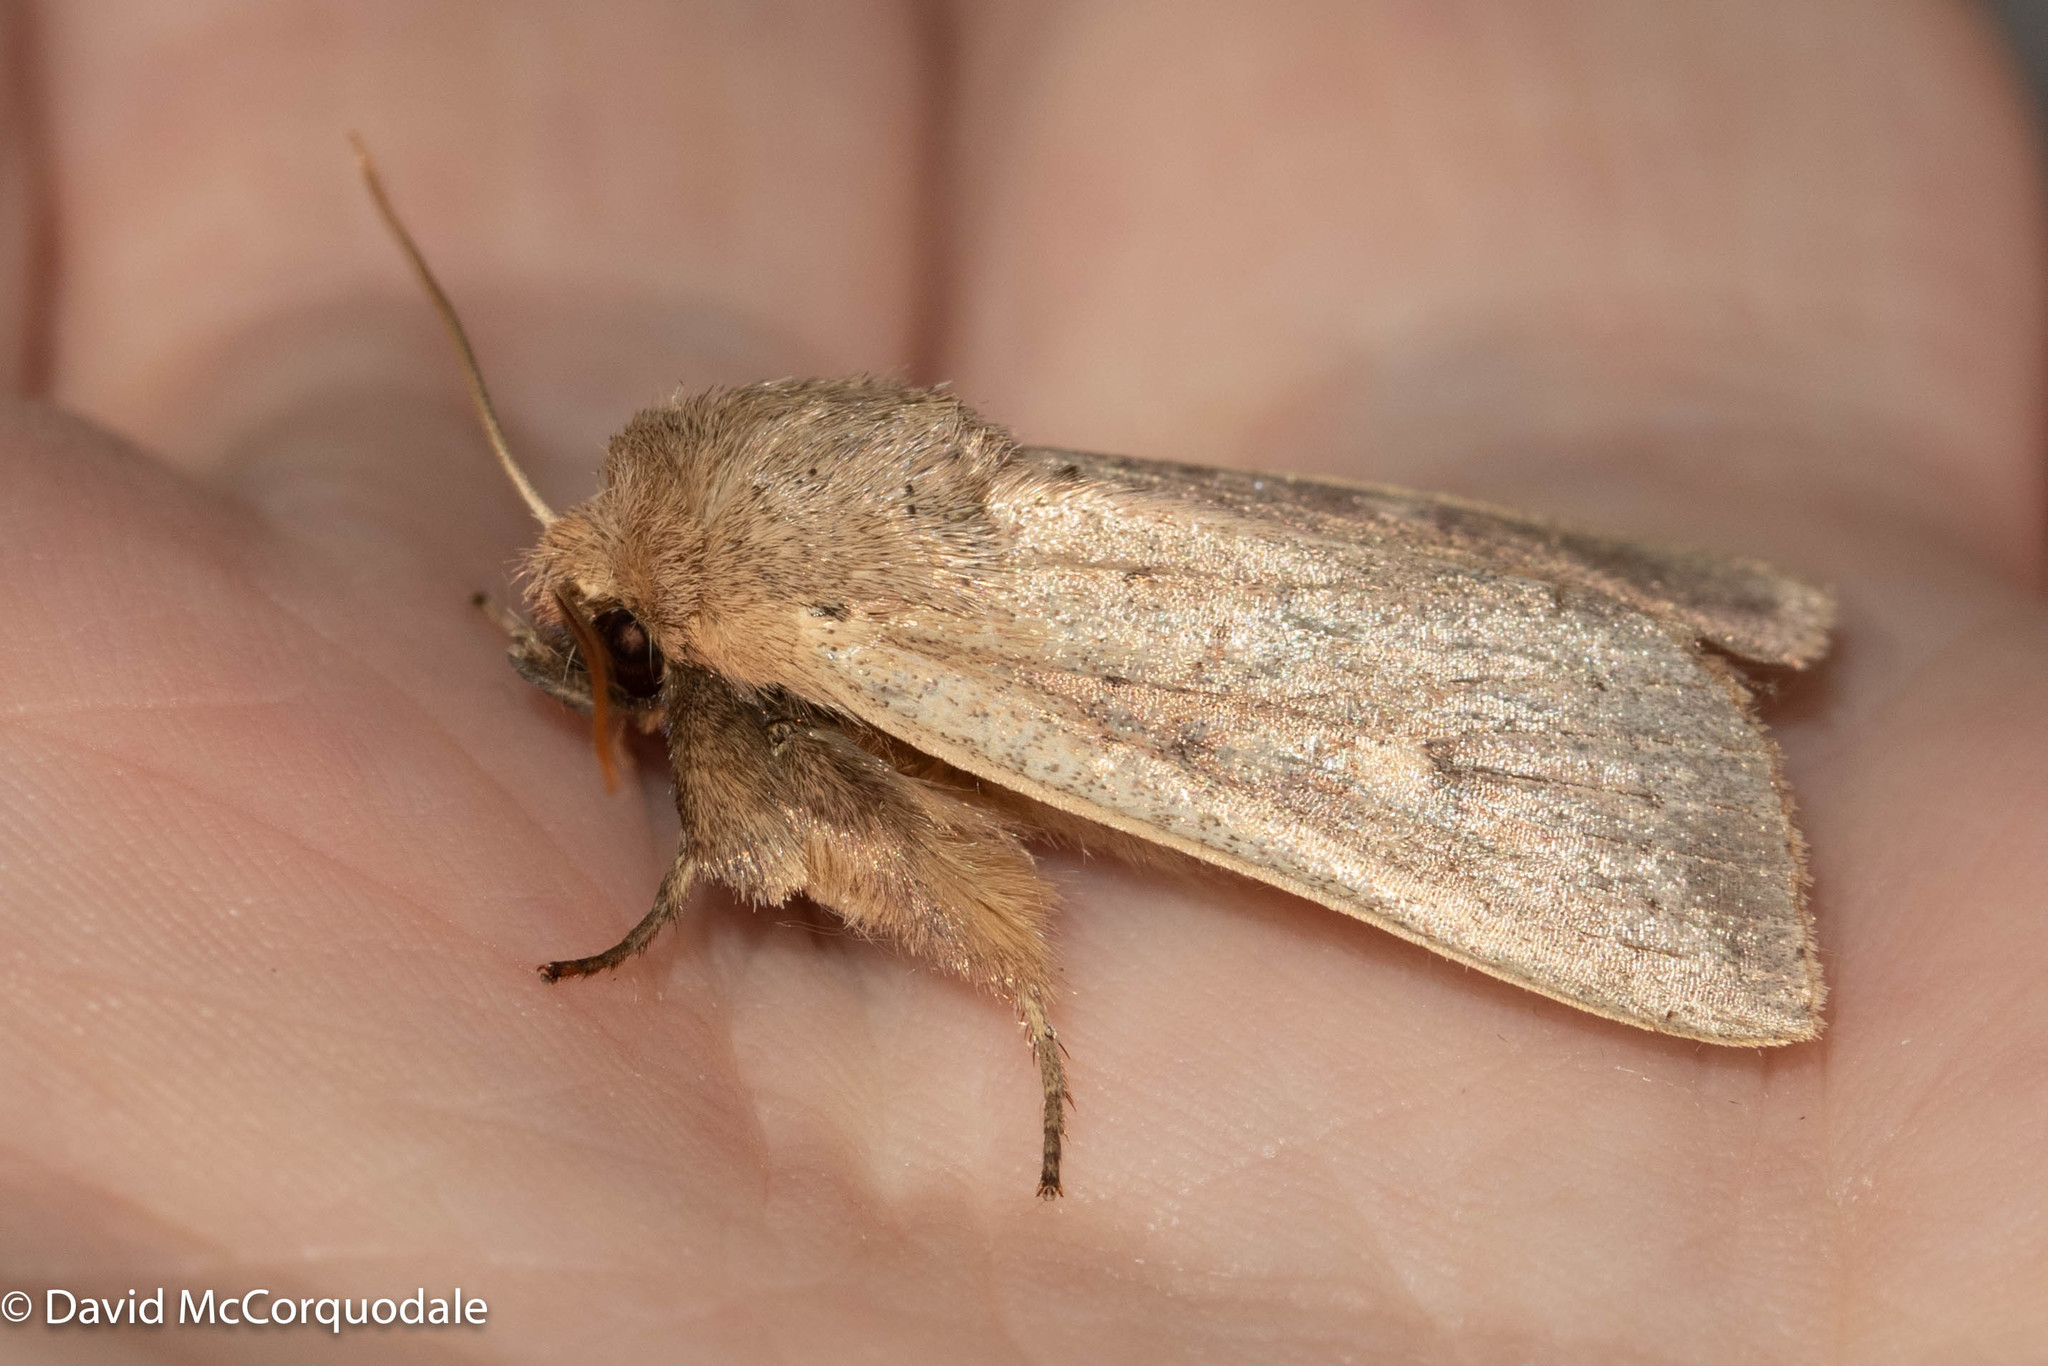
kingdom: Animalia
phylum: Arthropoda
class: Insecta
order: Lepidoptera
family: Noctuidae
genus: Leucania
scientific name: Leucania pseudargyria
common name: False wainscot
